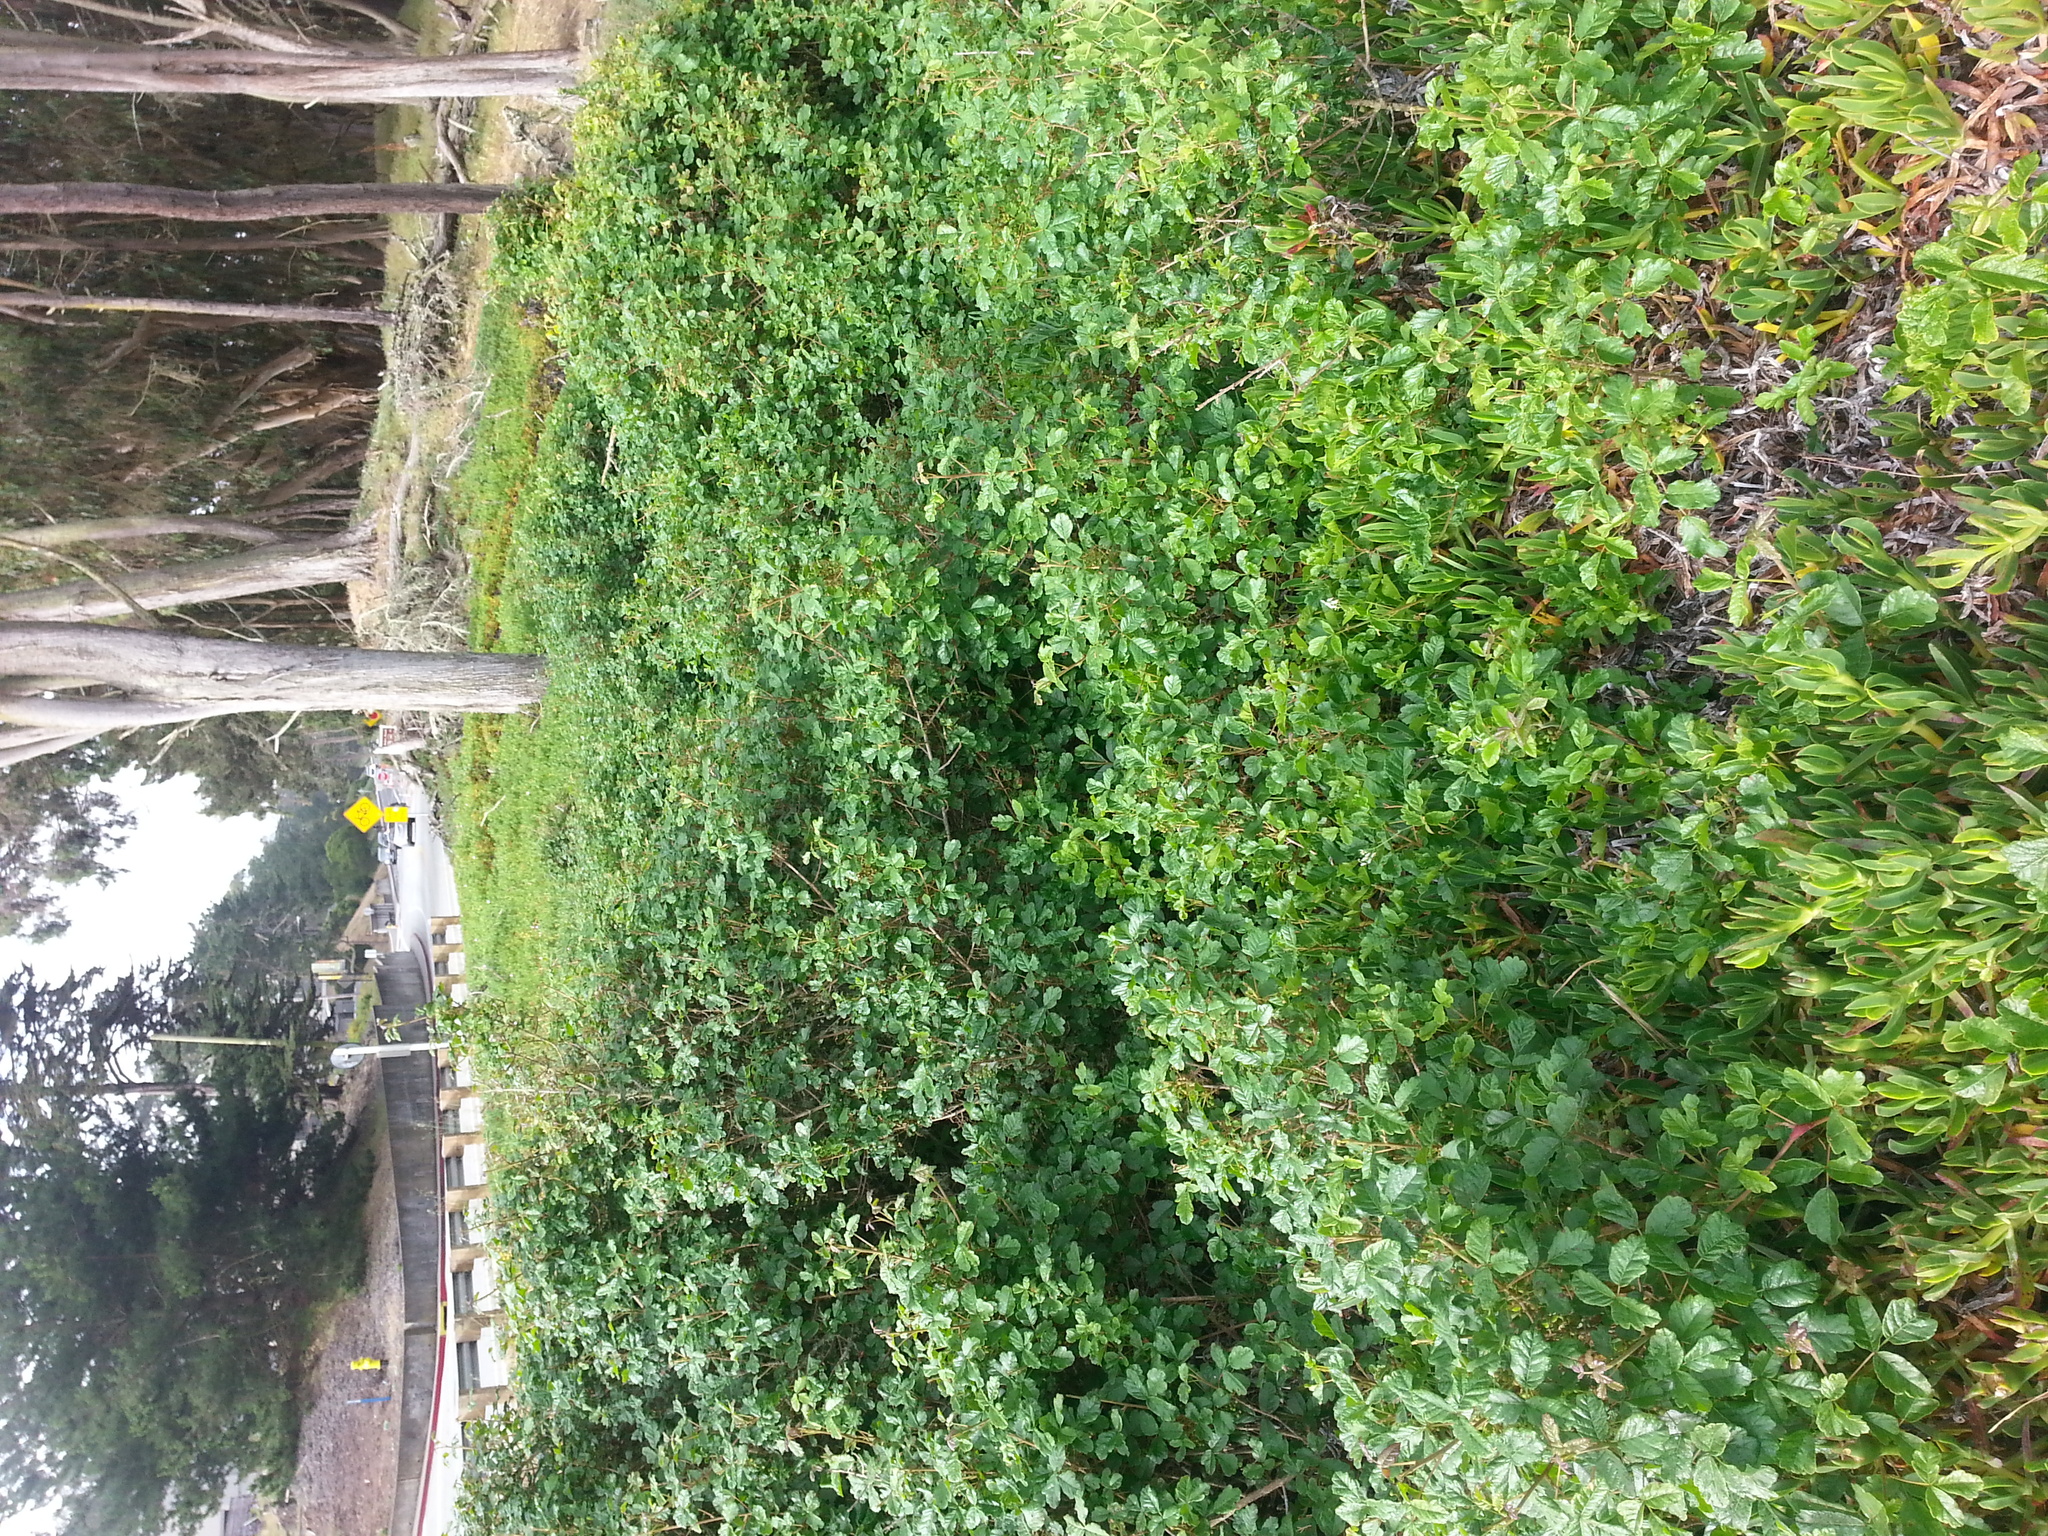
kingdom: Plantae
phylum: Tracheophyta
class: Magnoliopsida
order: Sapindales
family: Anacardiaceae
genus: Toxicodendron
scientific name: Toxicodendron diversilobum
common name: Pacific poison-oak
